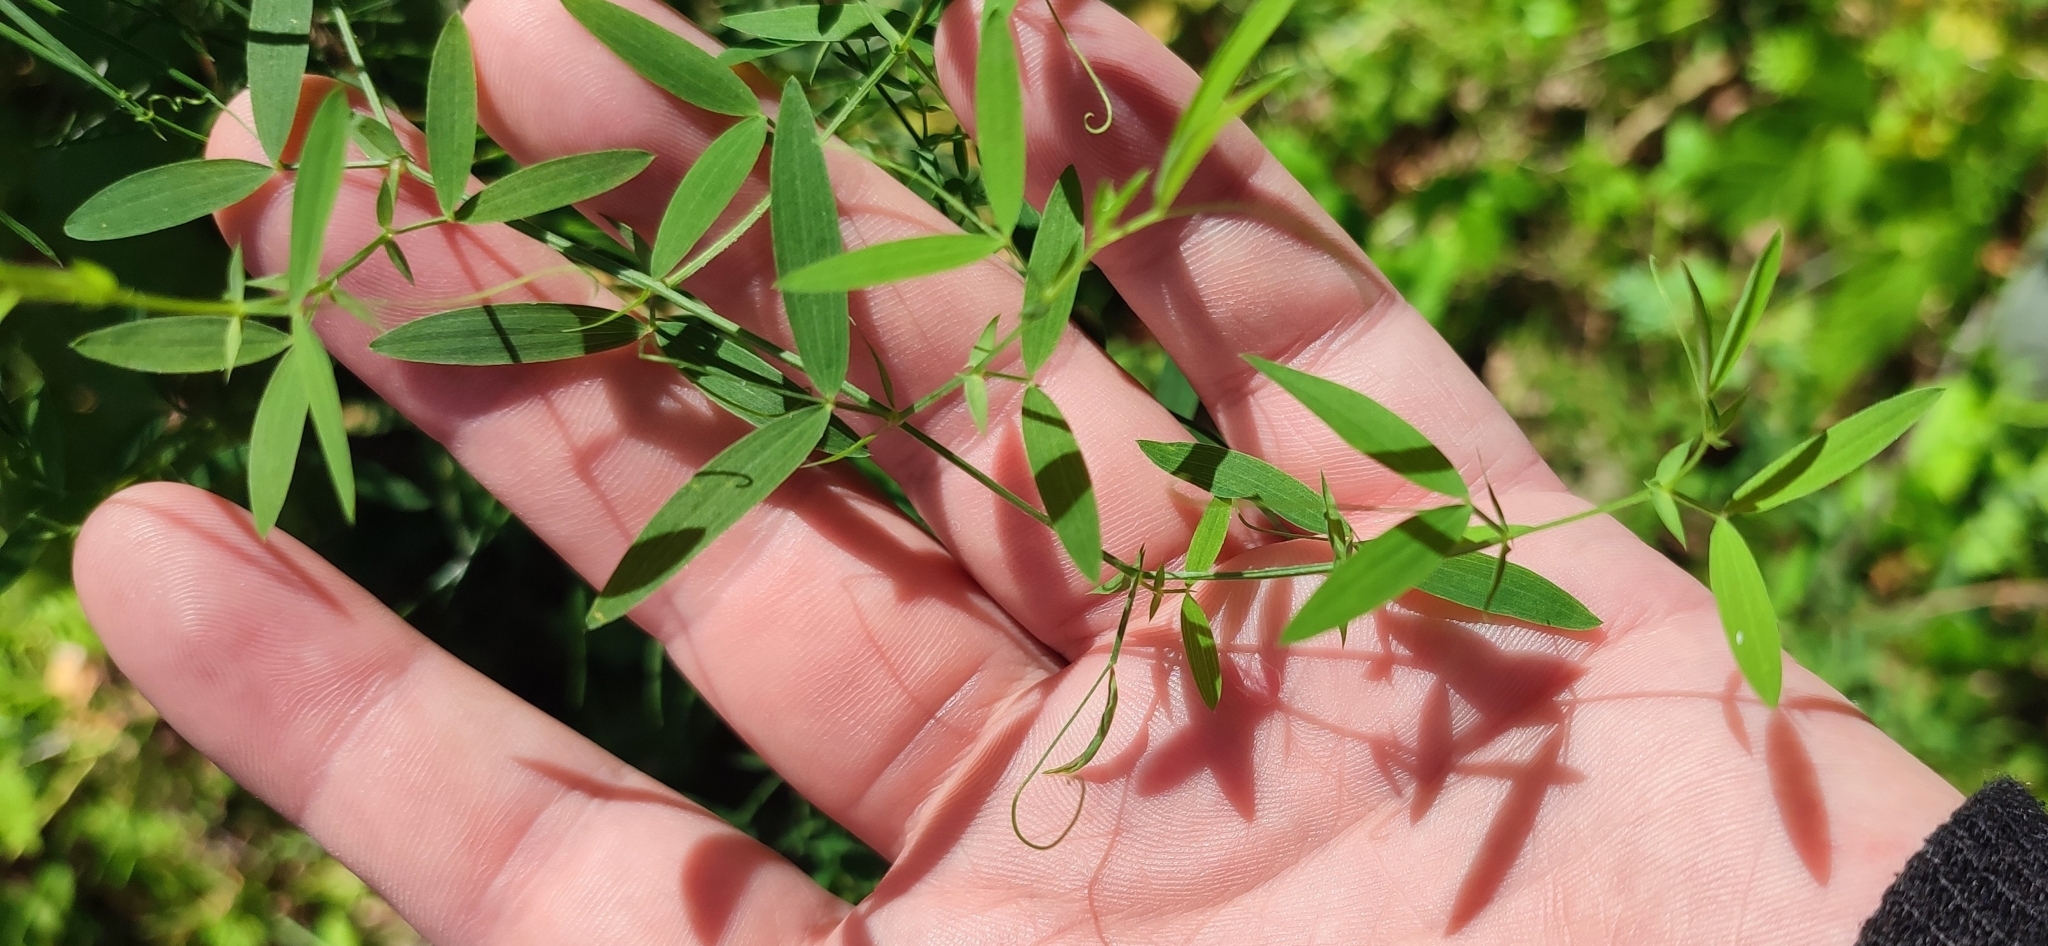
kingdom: Plantae
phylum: Tracheophyta
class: Magnoliopsida
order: Fabales
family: Fabaceae
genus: Lathyrus
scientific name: Lathyrus pratensis
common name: Meadow vetchling
